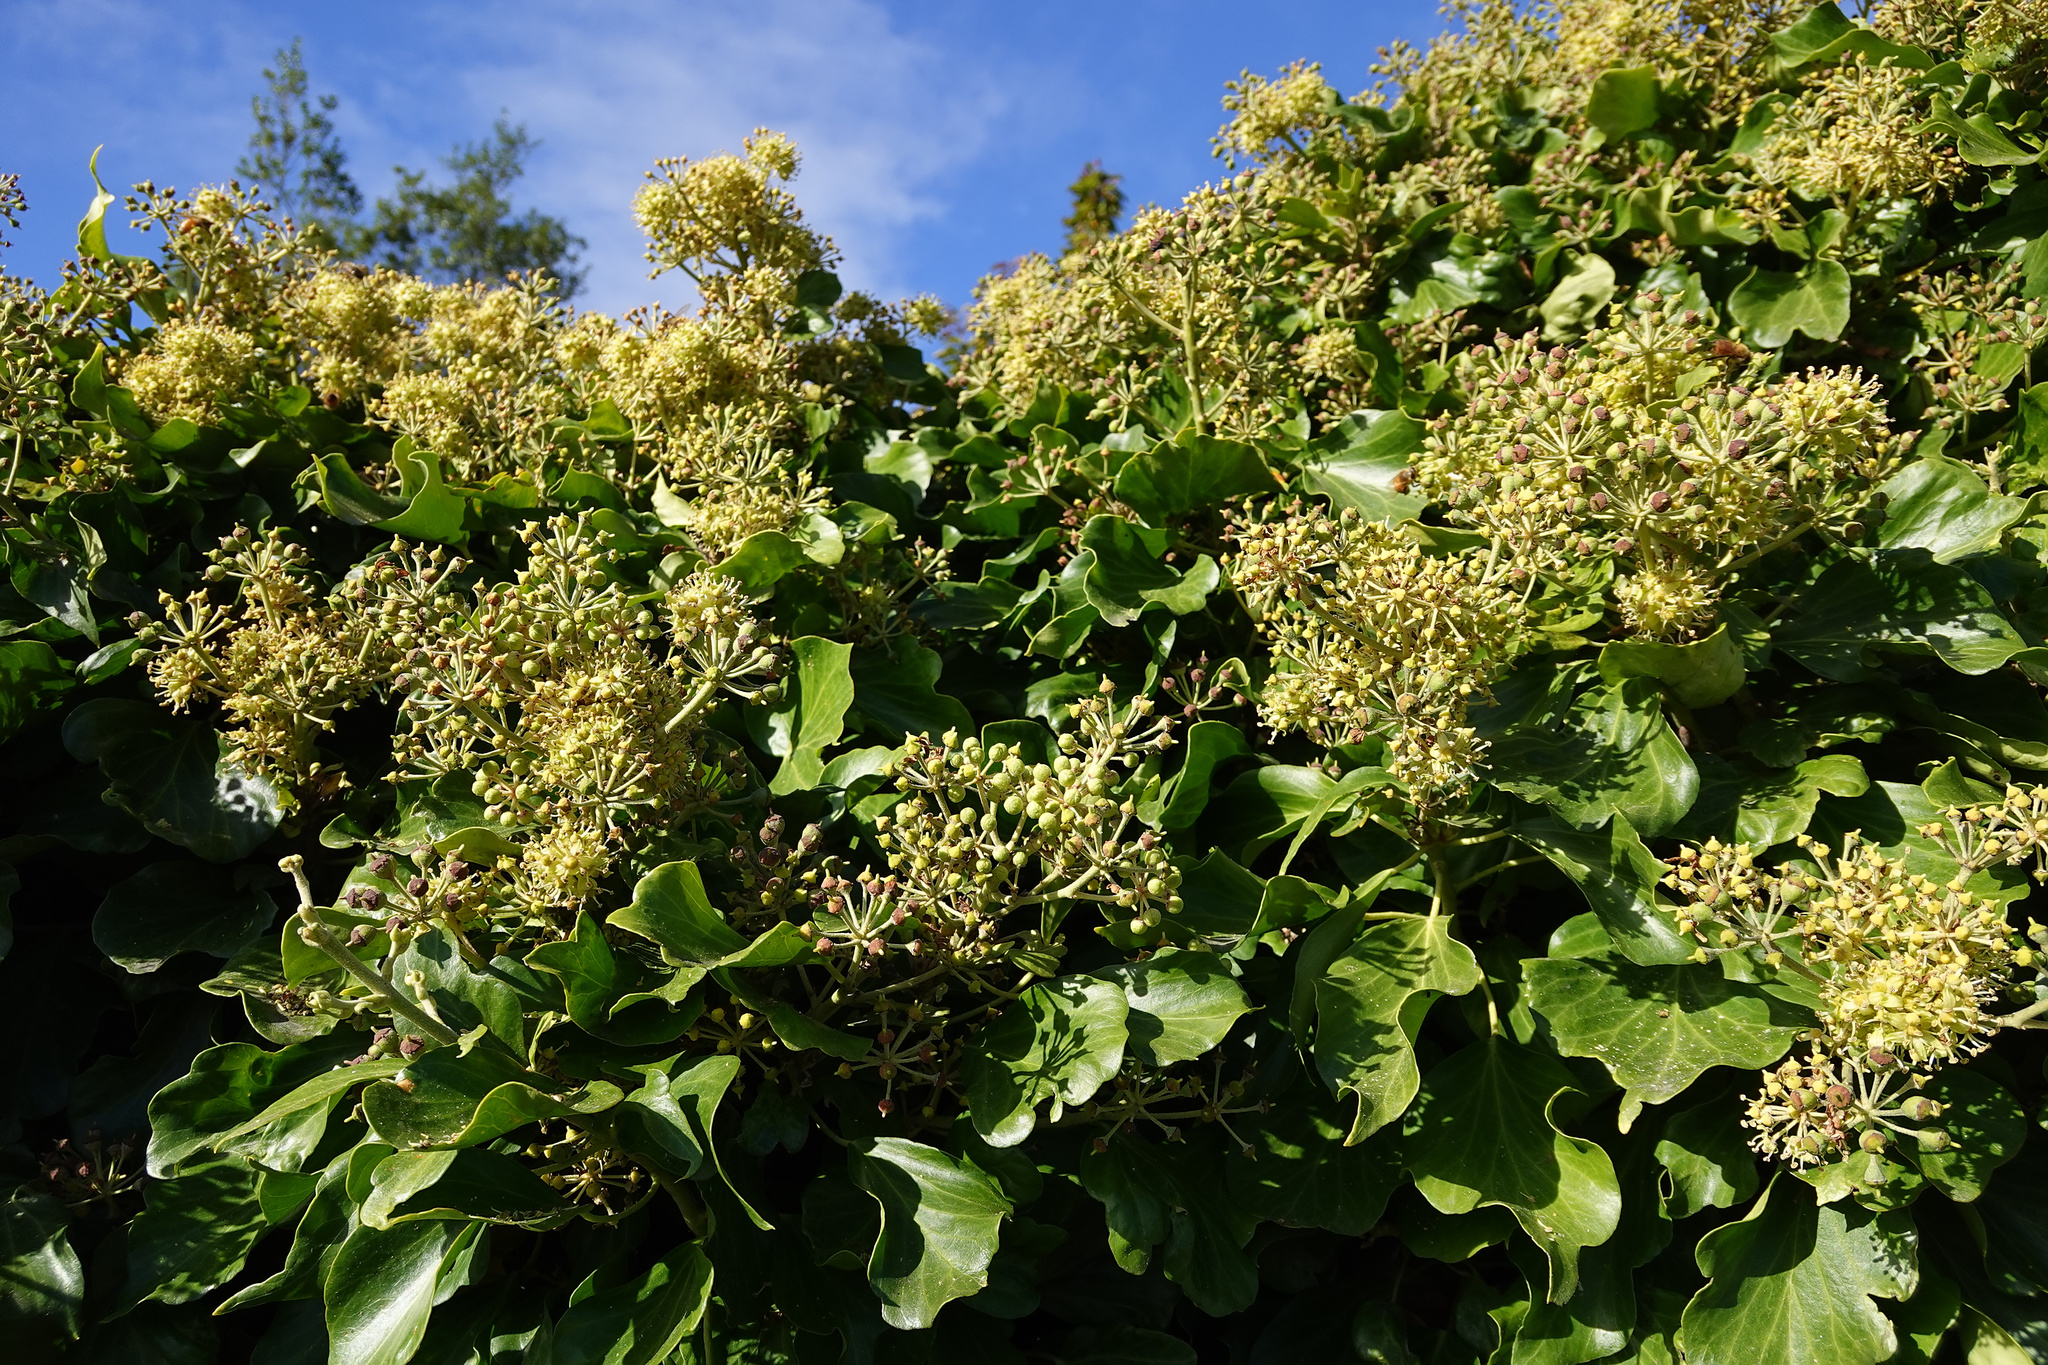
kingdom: Plantae
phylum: Tracheophyta
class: Magnoliopsida
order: Apiales
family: Araliaceae
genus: Hedera
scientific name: Hedera helix
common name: Ivy
